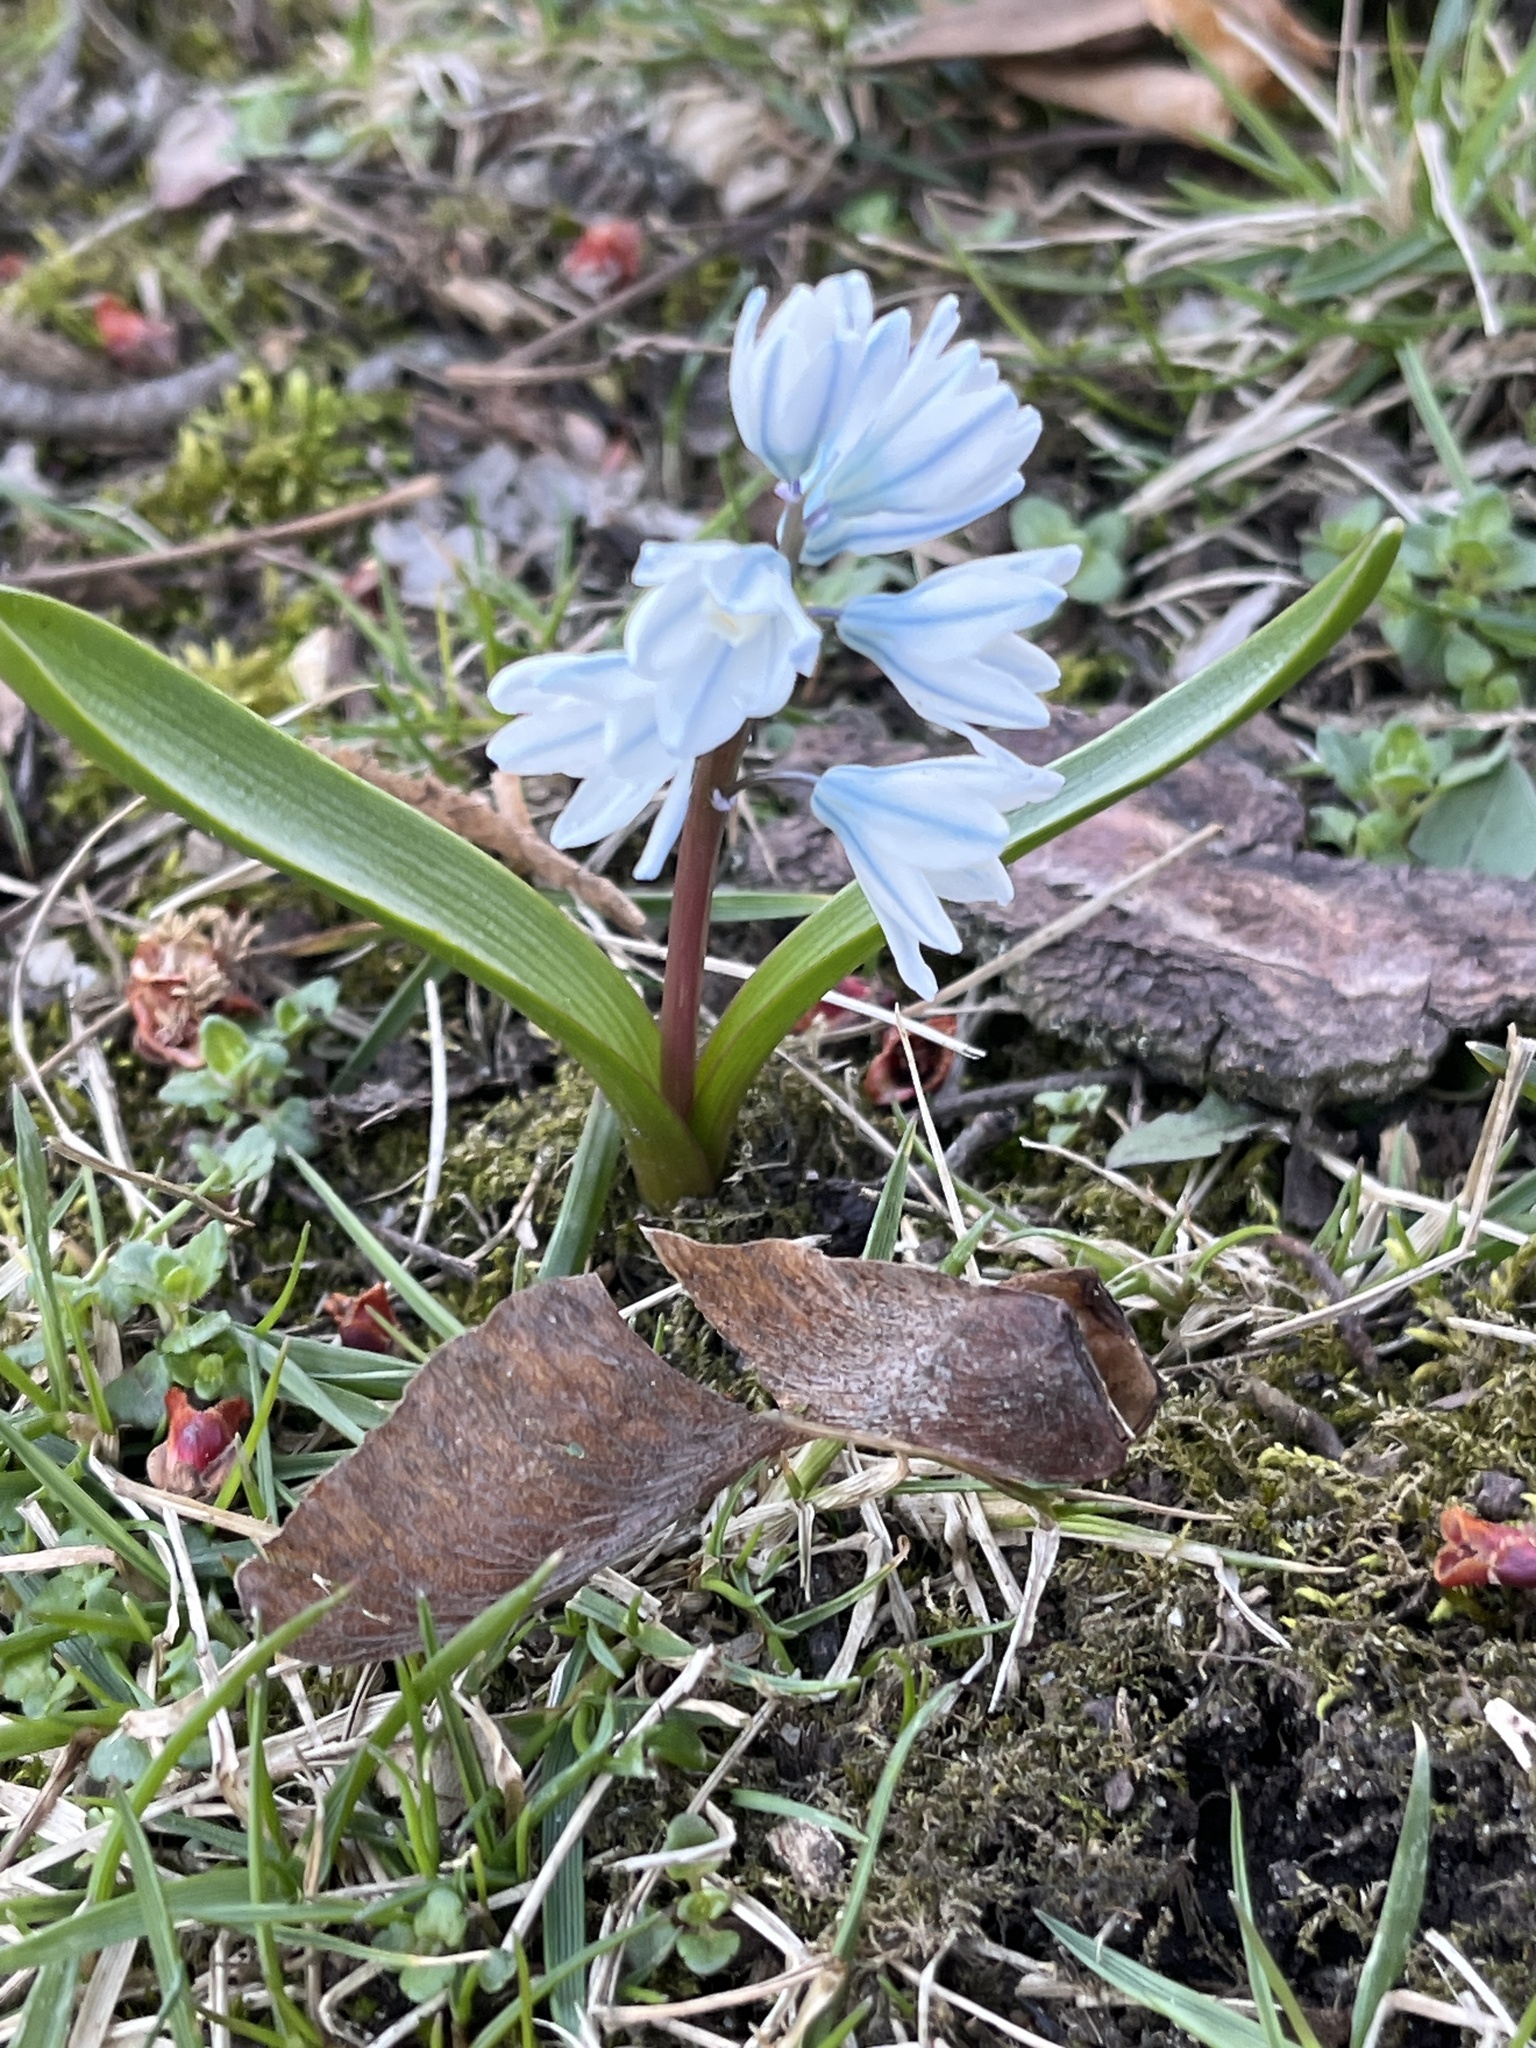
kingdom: Plantae
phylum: Tracheophyta
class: Liliopsida
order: Asparagales
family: Asparagaceae
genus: Puschkinia
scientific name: Puschkinia scilloides
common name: Striped squill
